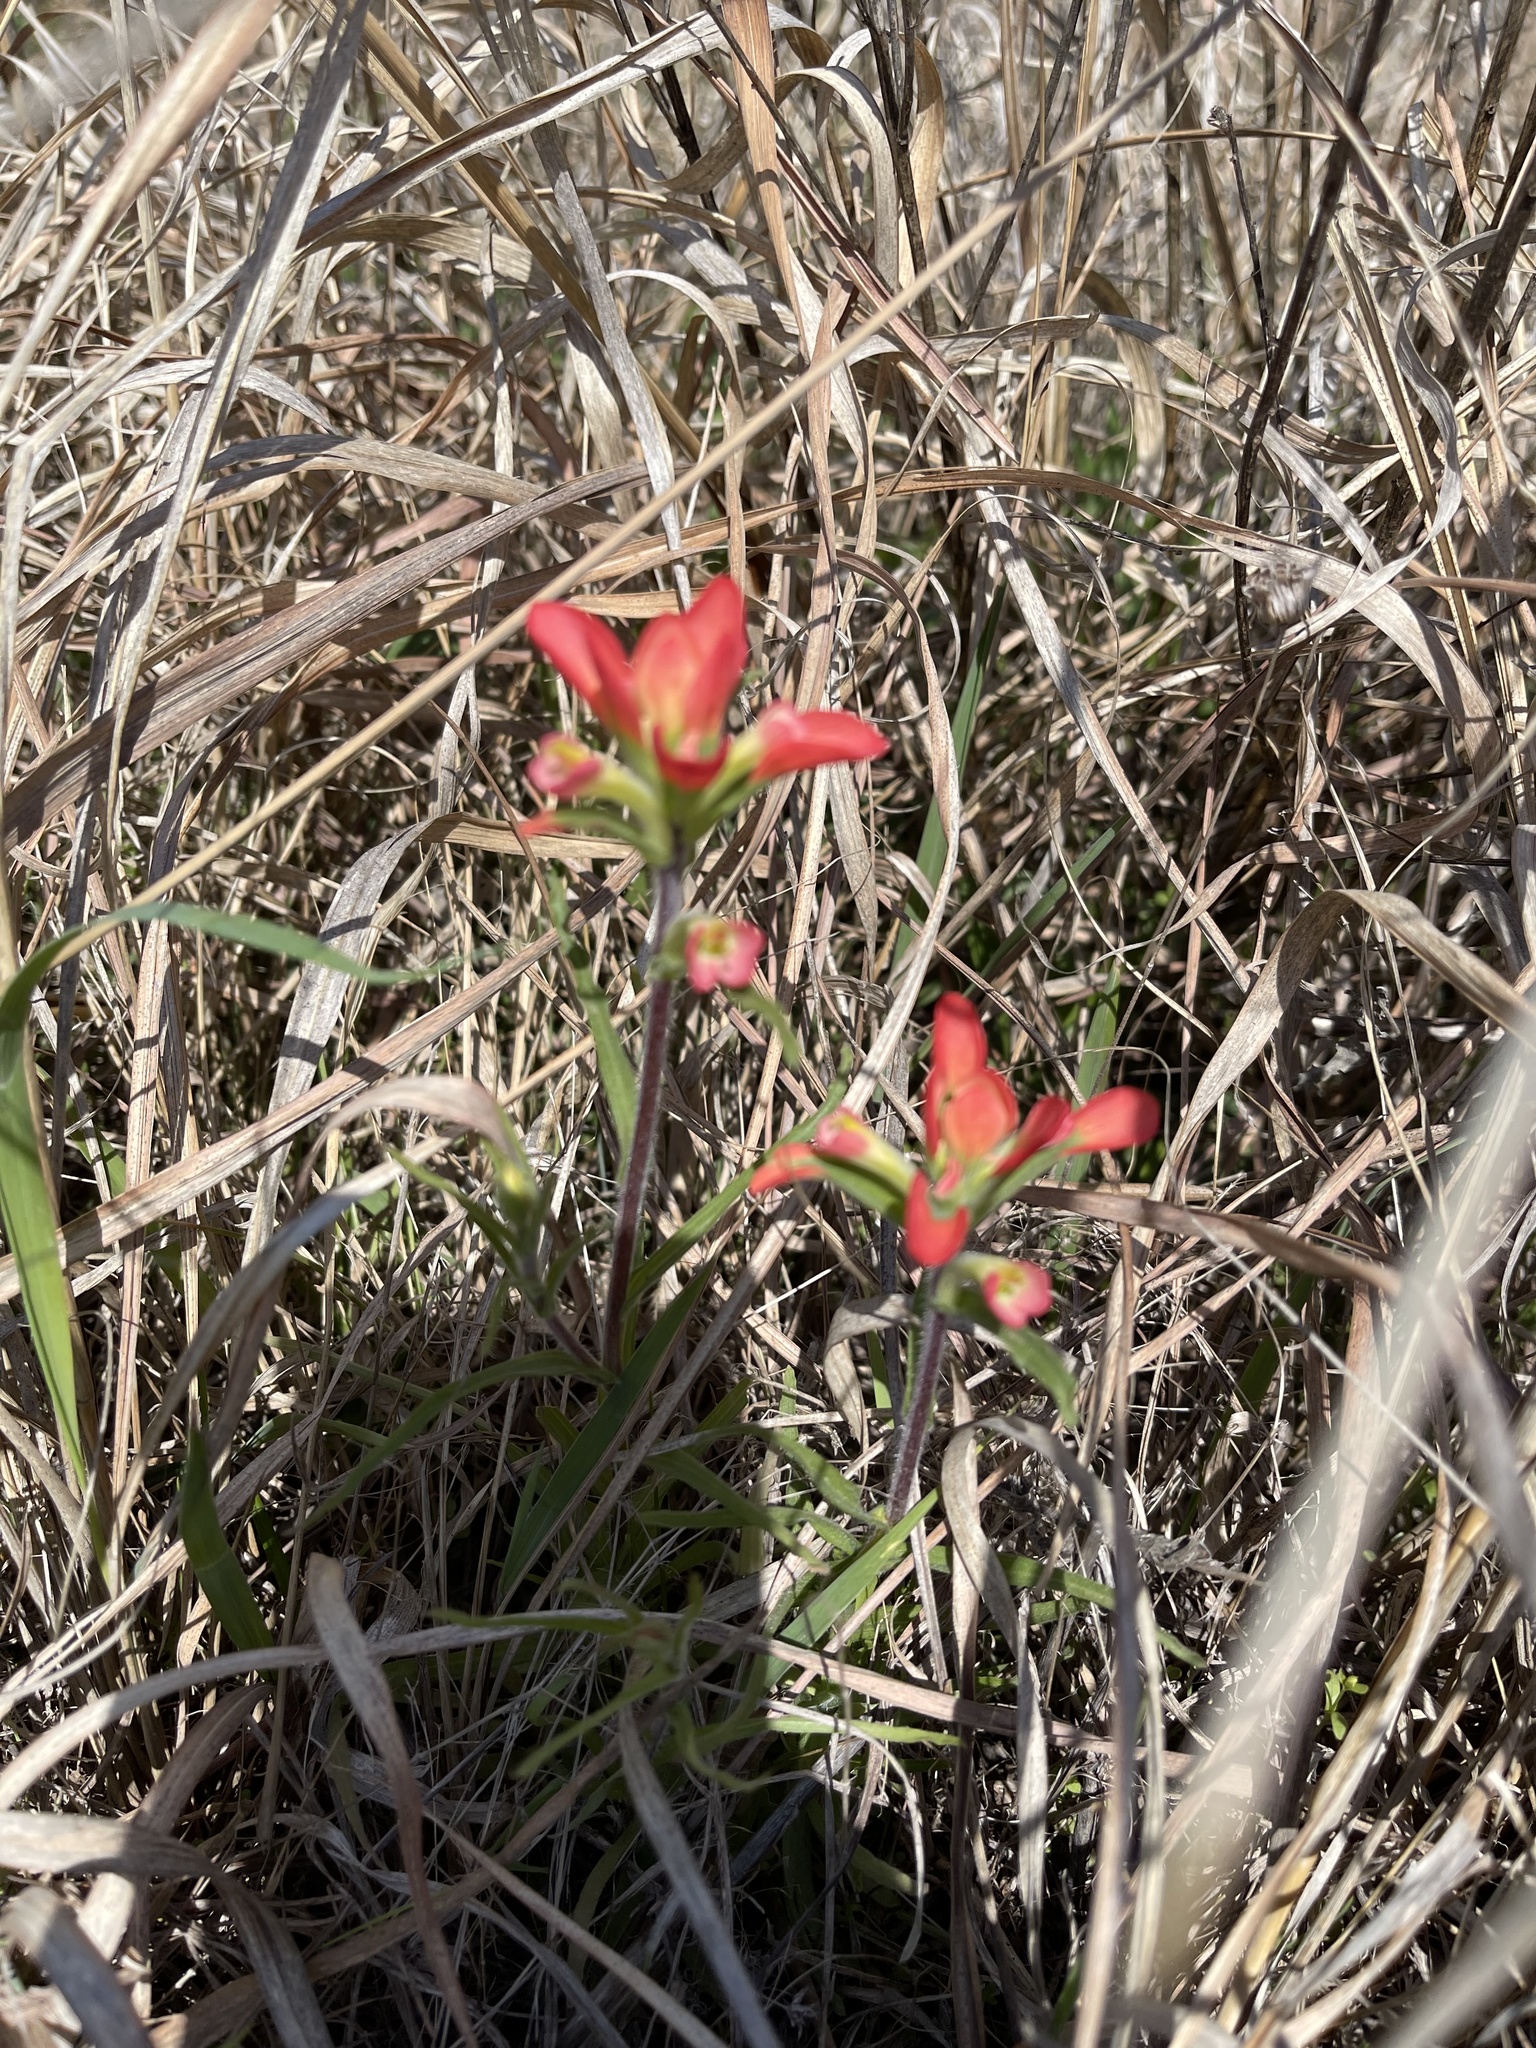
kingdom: Plantae
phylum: Tracheophyta
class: Magnoliopsida
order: Lamiales
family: Orobanchaceae
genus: Castilleja
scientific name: Castilleja indivisa
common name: Texas paintbrush
